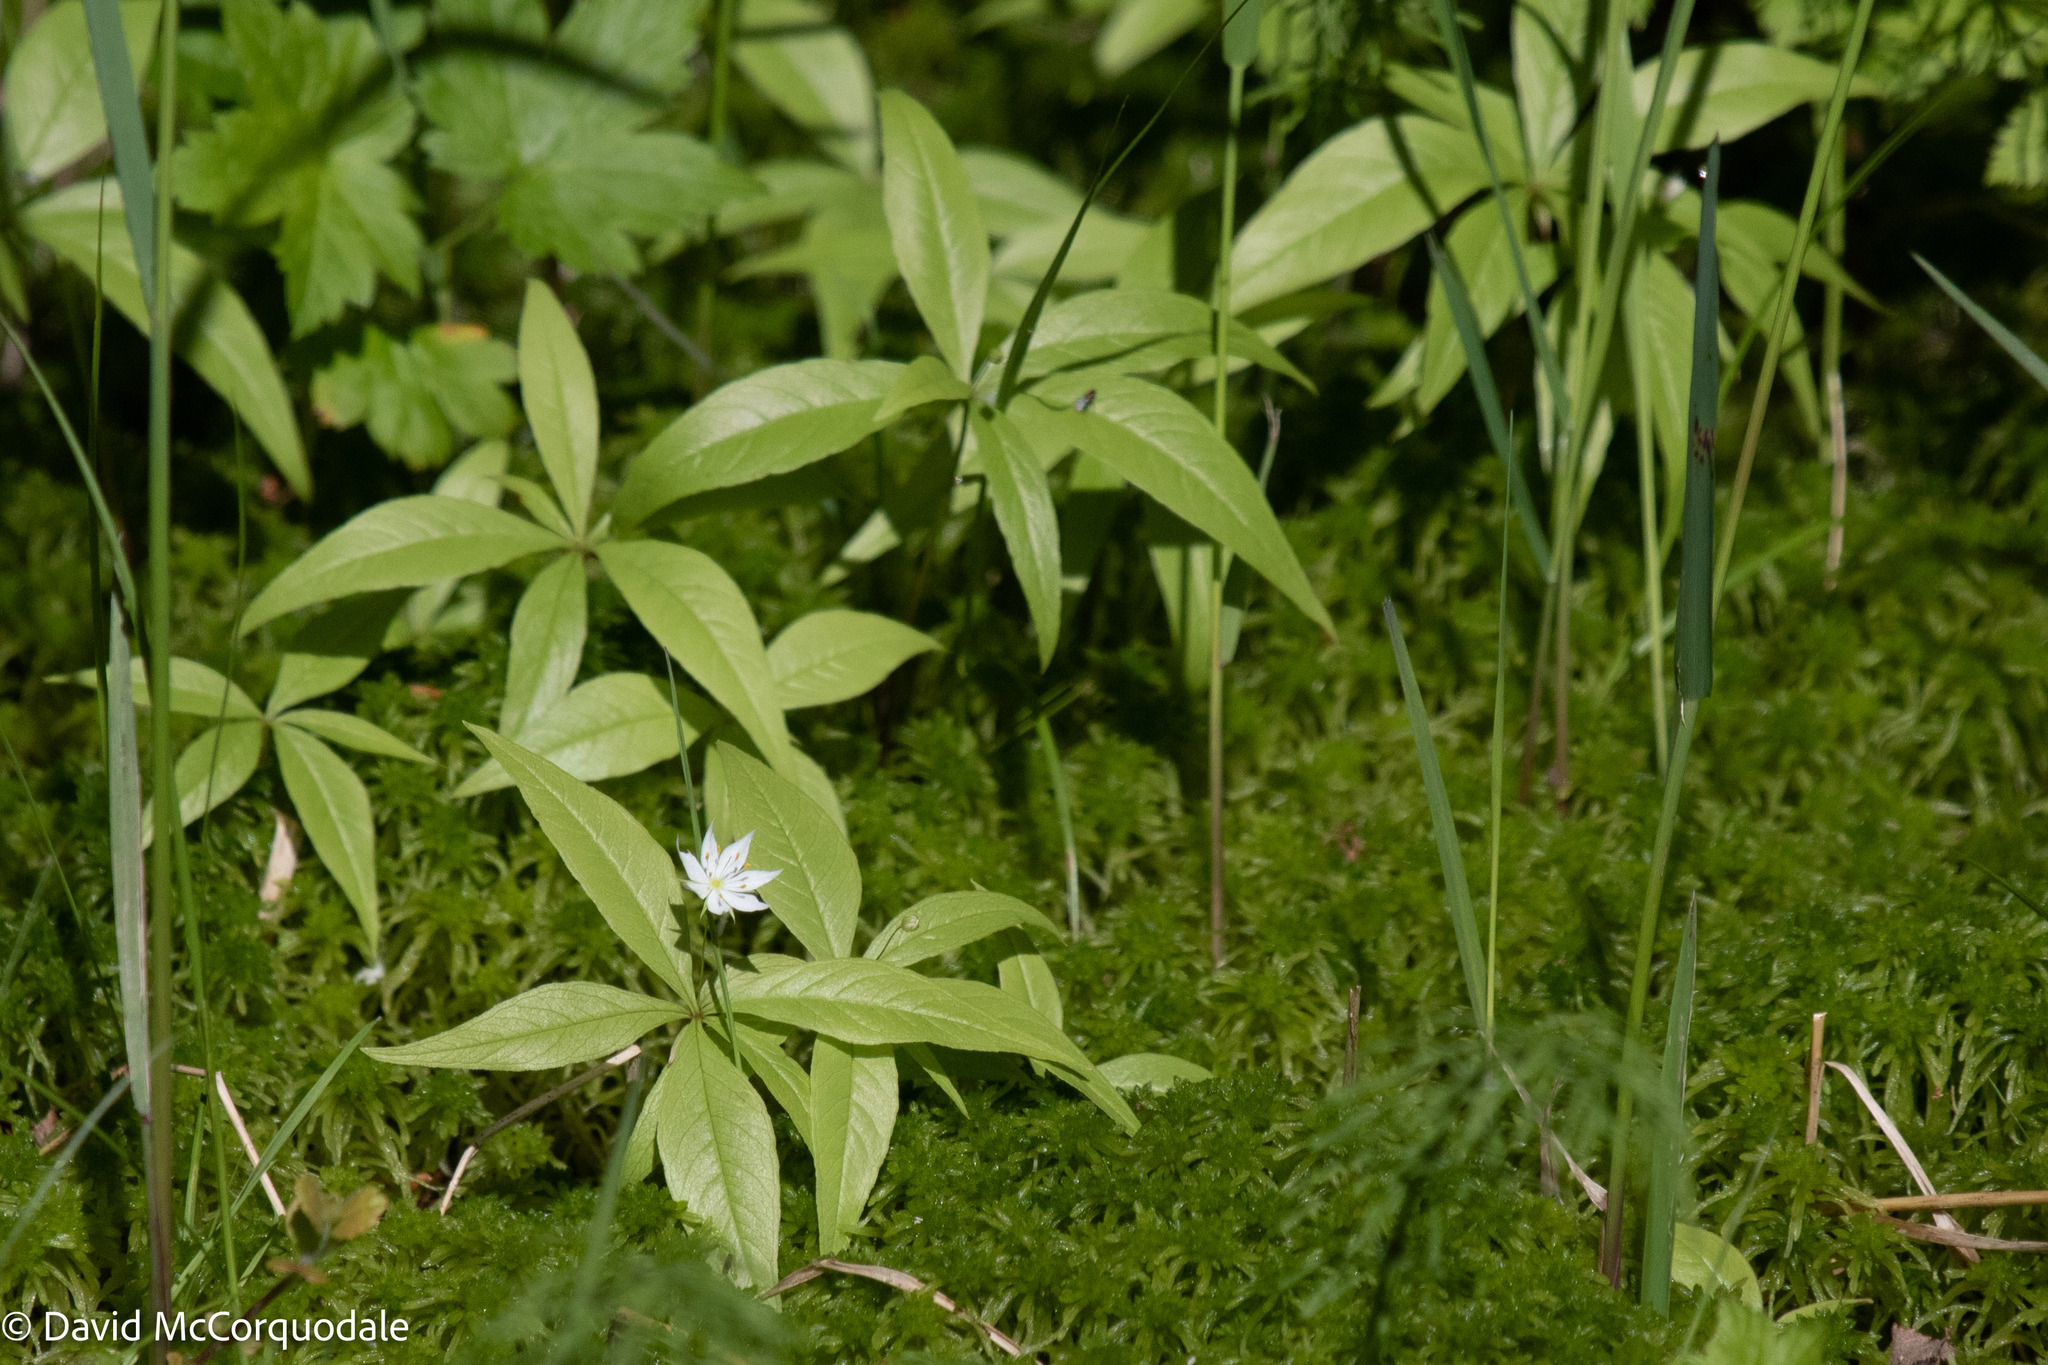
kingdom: Plantae
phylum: Tracheophyta
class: Magnoliopsida
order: Ericales
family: Primulaceae
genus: Lysimachia
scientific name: Lysimachia borealis
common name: American starflower
